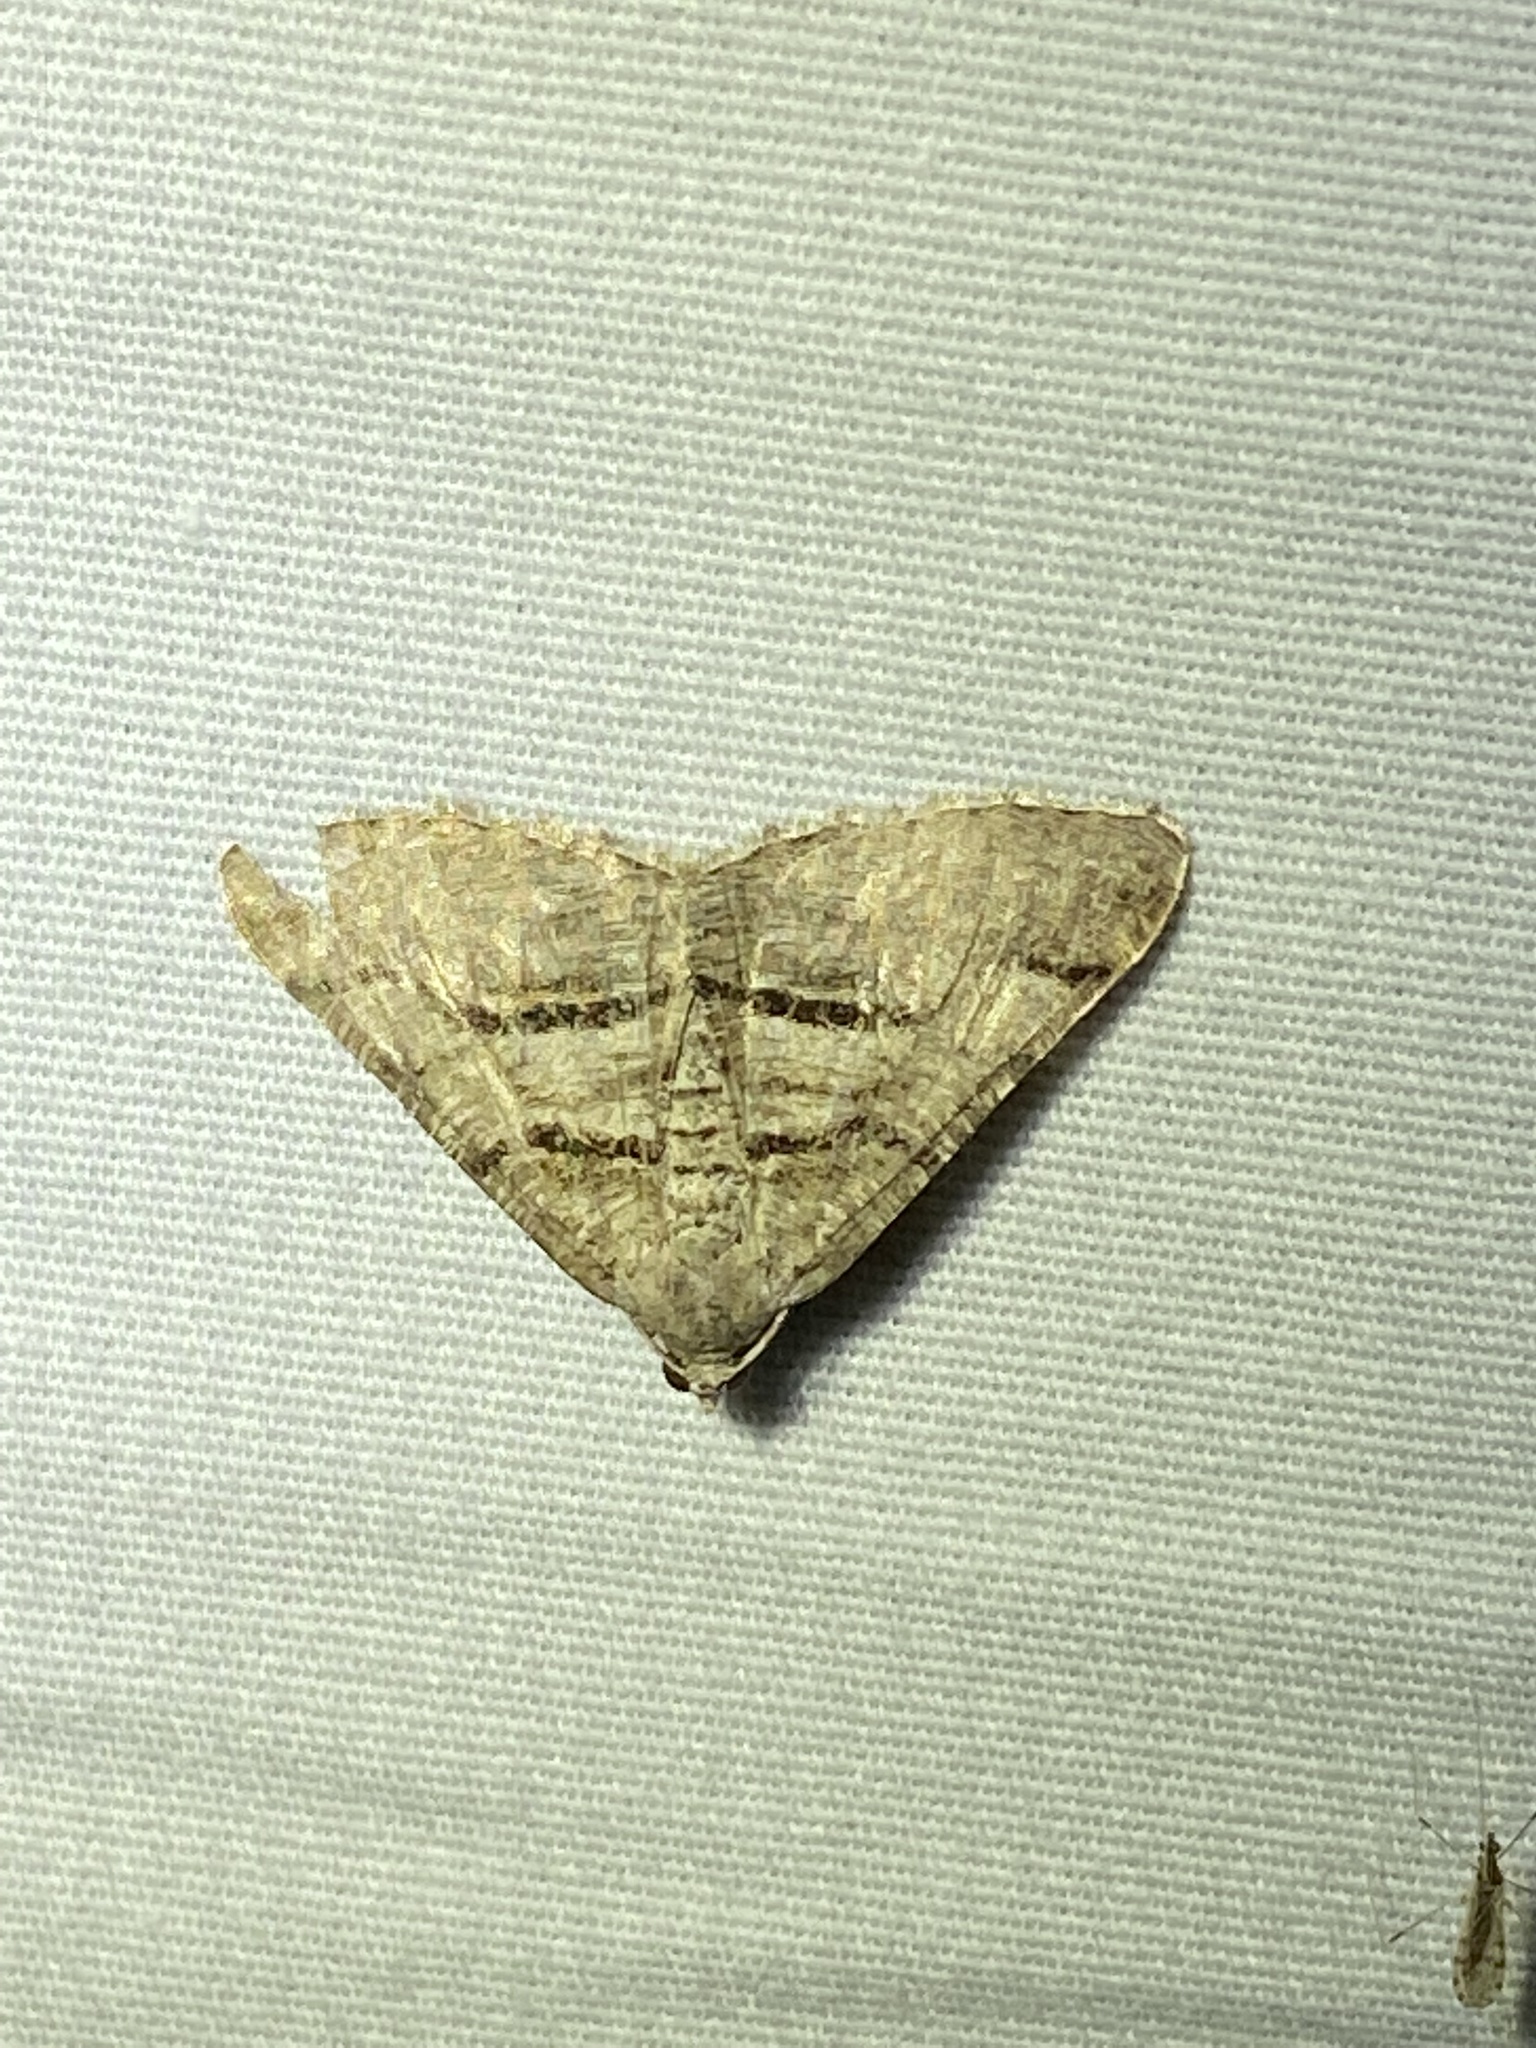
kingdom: Animalia
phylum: Arthropoda
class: Insecta
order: Lepidoptera
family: Geometridae
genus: Digrammia
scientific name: Digrammia continuata
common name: Curve-lined angle
